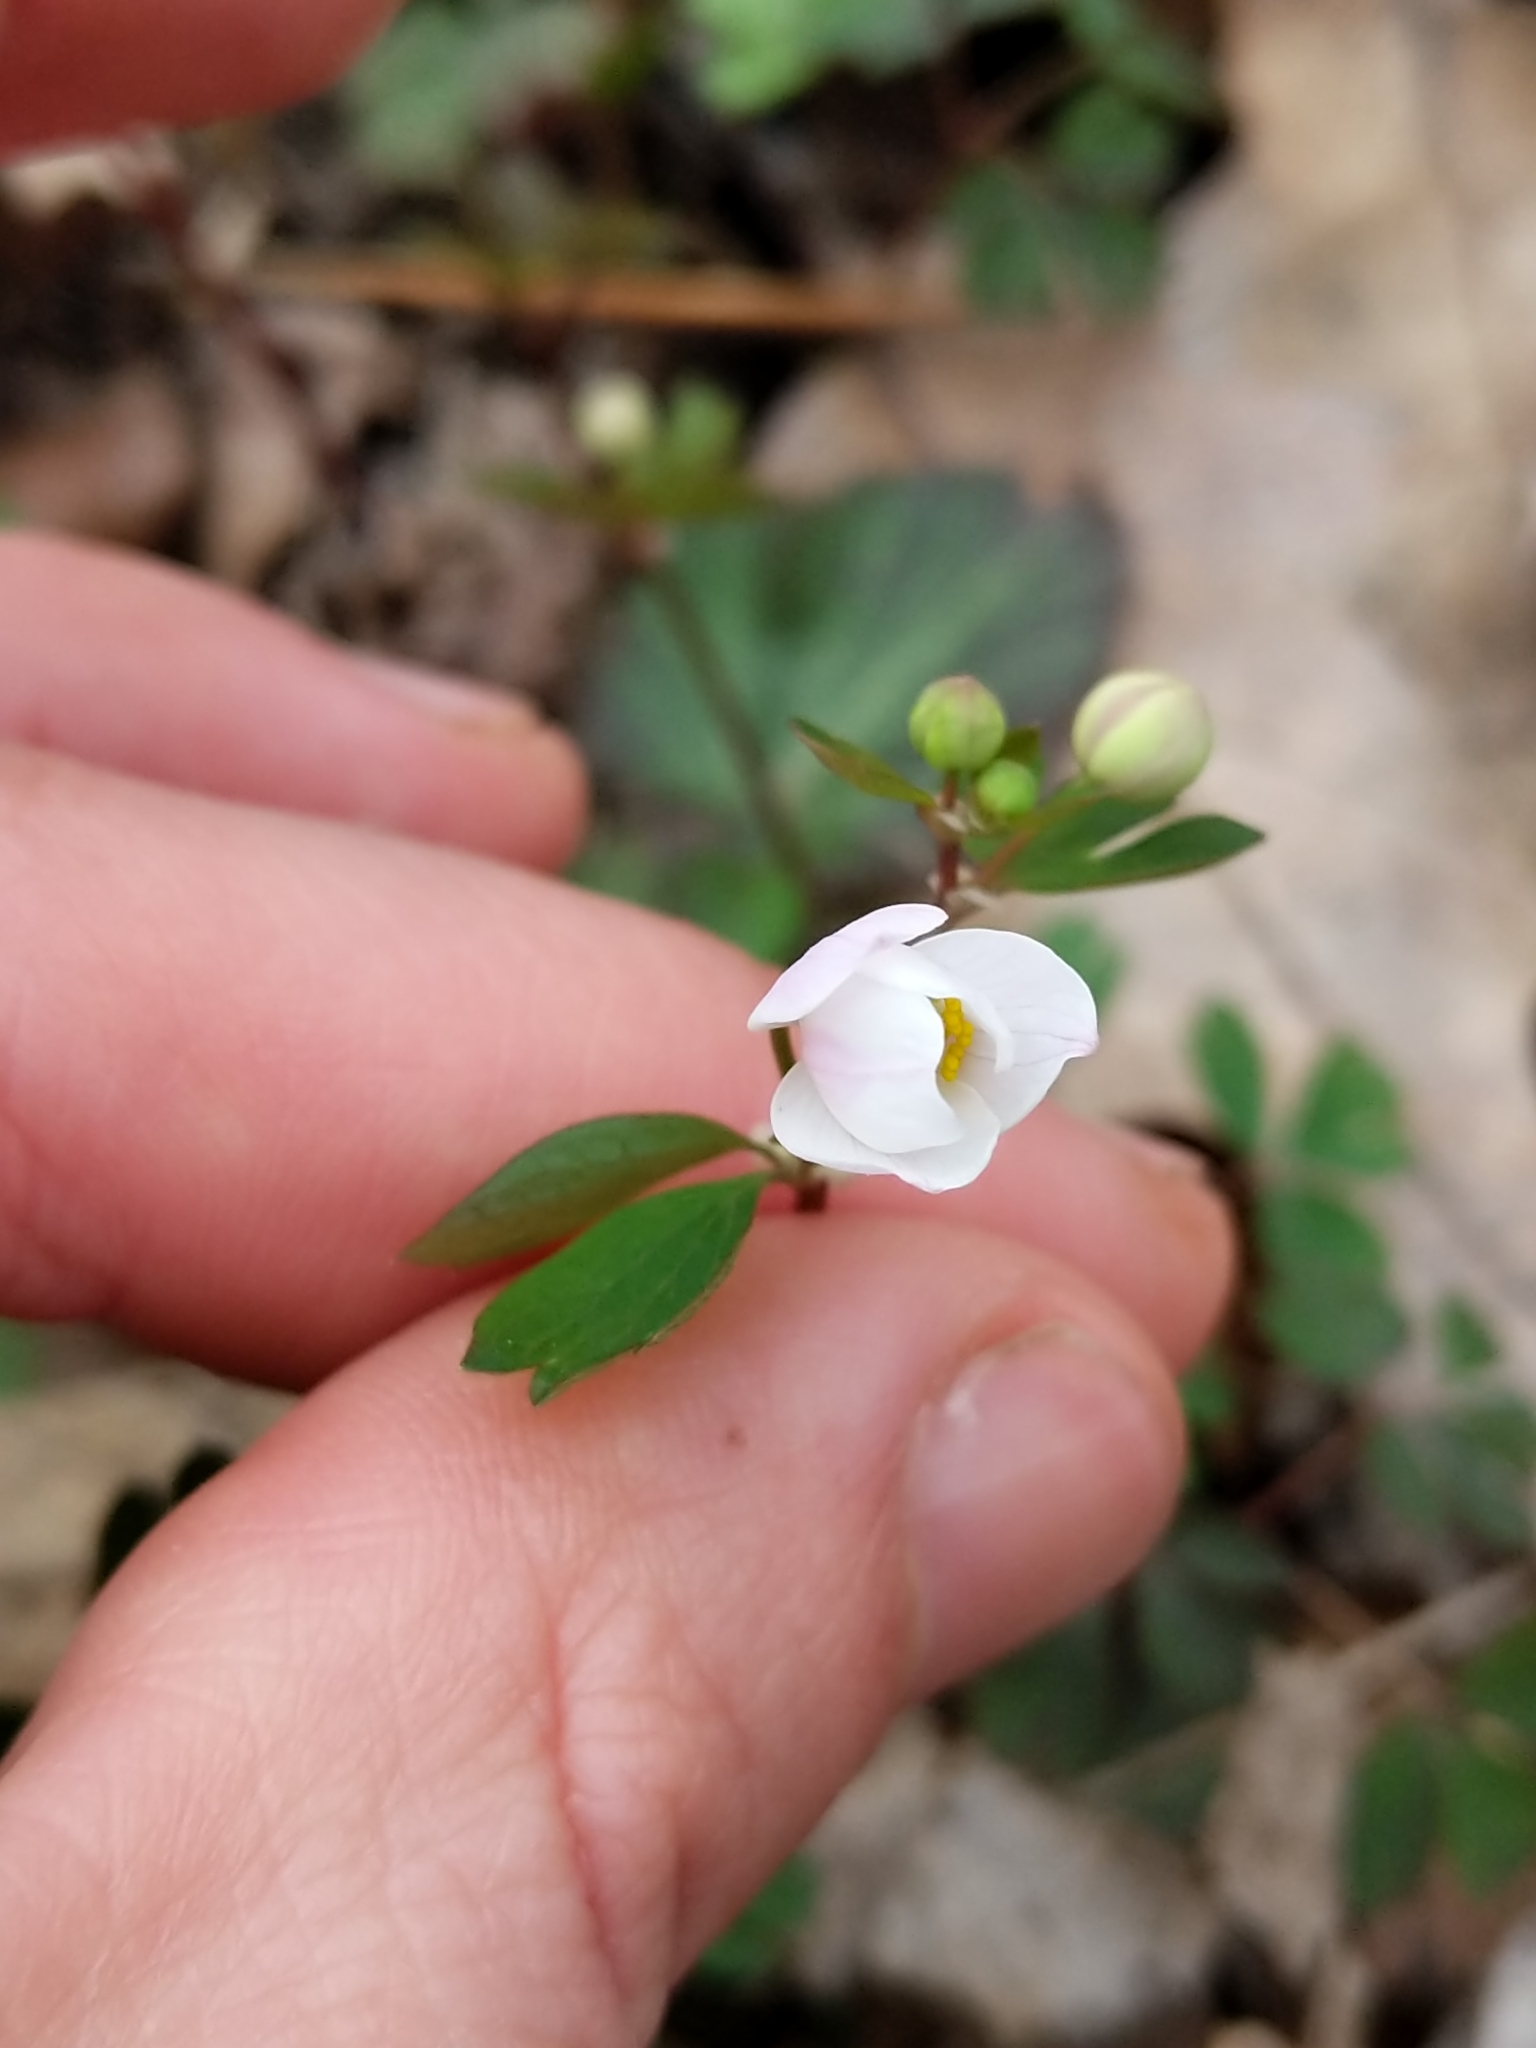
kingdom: Plantae
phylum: Tracheophyta
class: Magnoliopsida
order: Ranunculales
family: Ranunculaceae
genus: Enemion
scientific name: Enemion biternatum
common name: Eastern false rue-anemone
